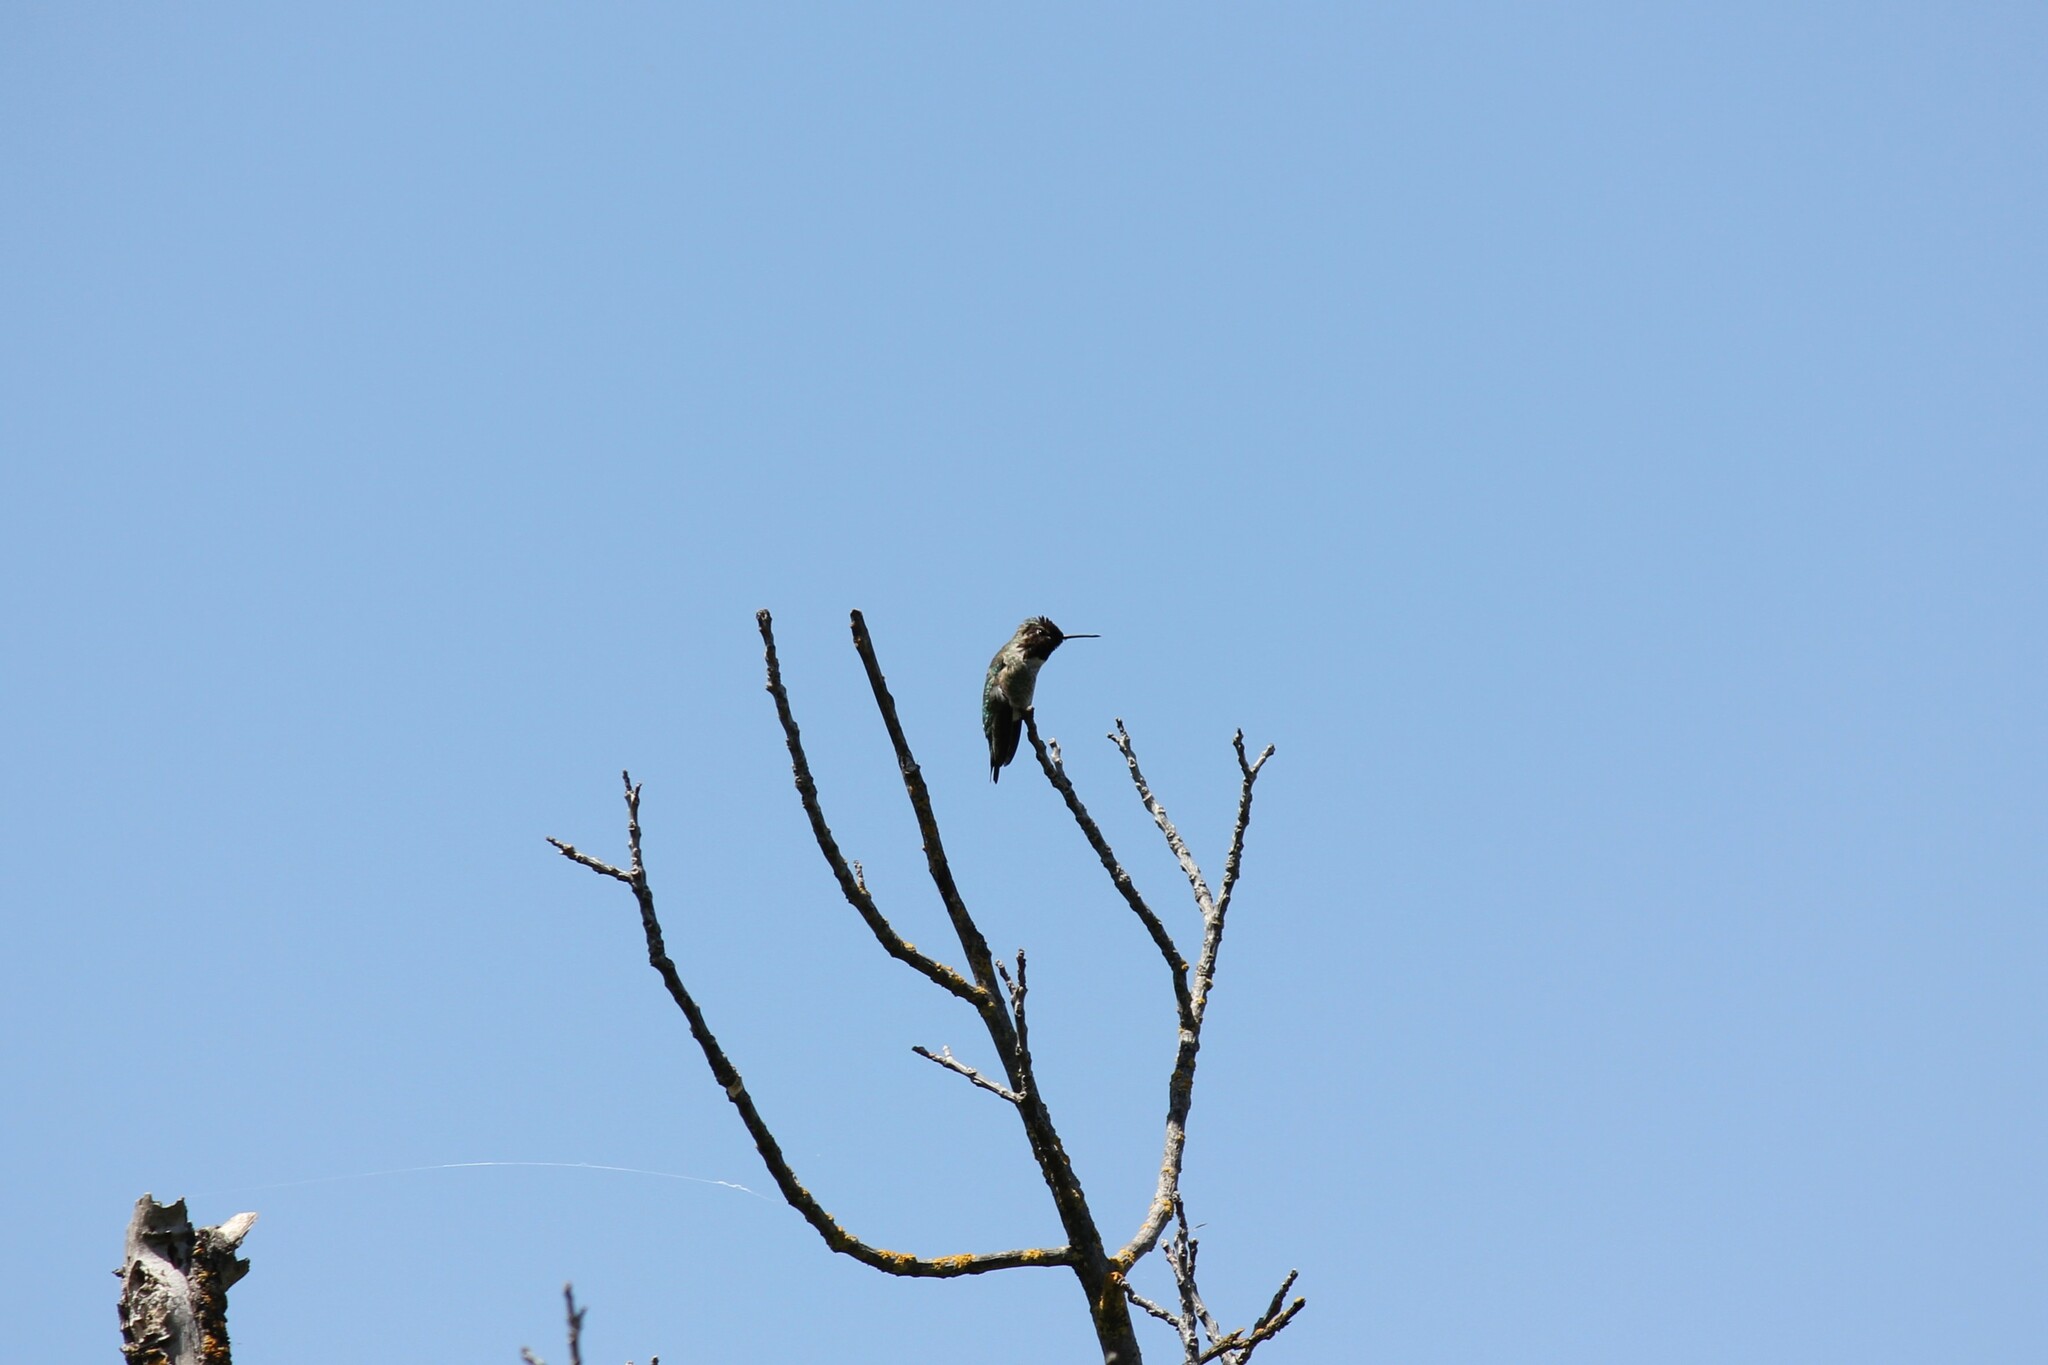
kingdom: Animalia
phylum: Chordata
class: Aves
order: Apodiformes
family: Trochilidae
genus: Calypte
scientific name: Calypte anna
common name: Anna's hummingbird
